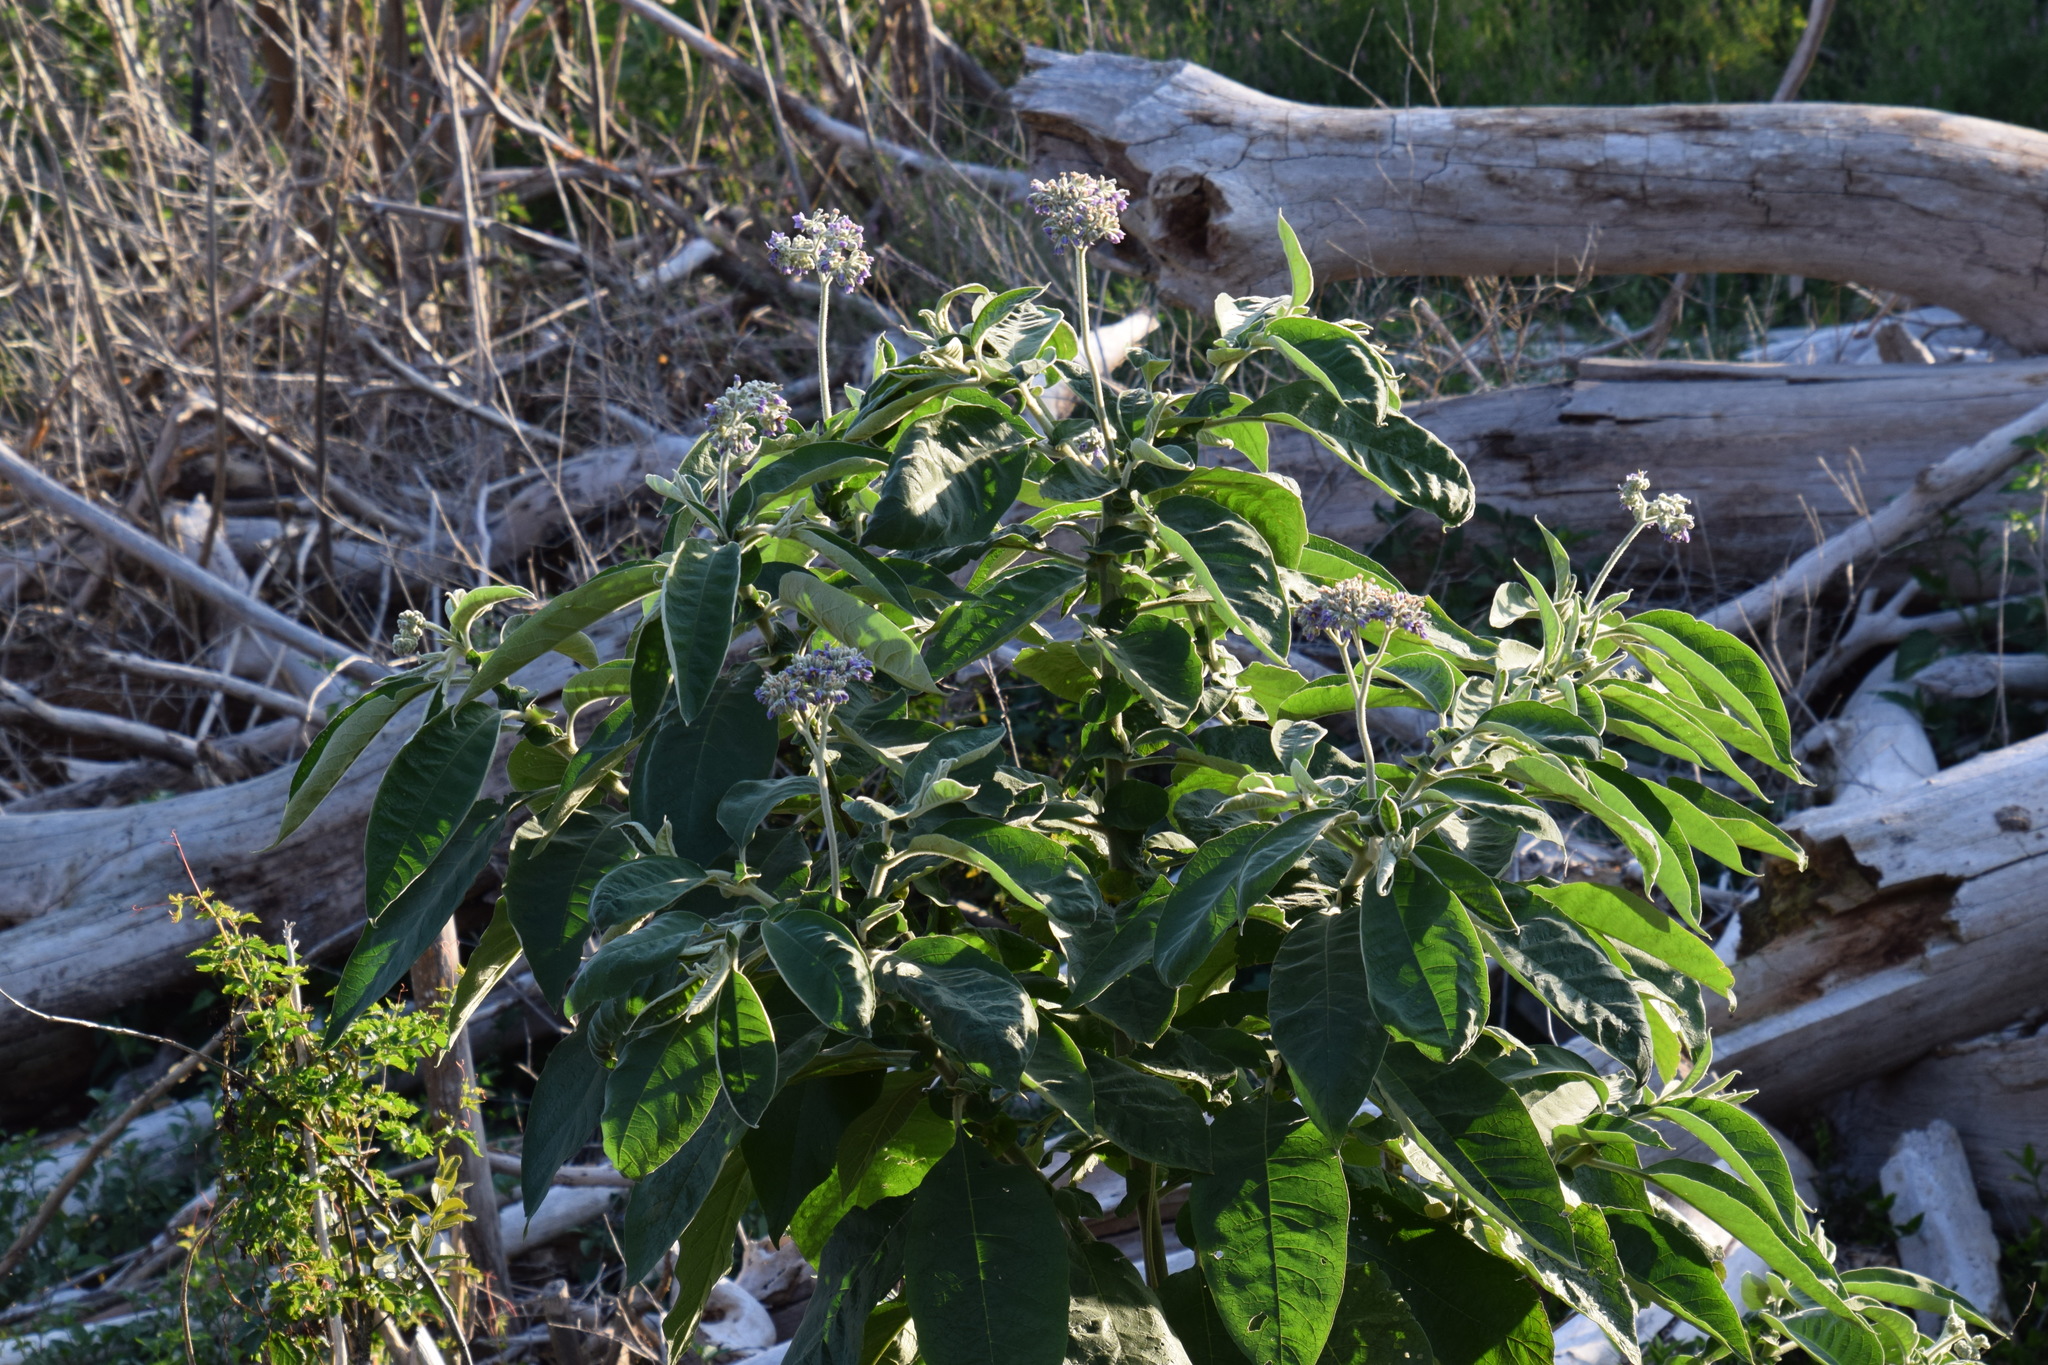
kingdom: Plantae
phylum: Tracheophyta
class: Magnoliopsida
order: Solanales
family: Solanaceae
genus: Solanum
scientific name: Solanum mauritianum
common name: Earleaf nightshade
